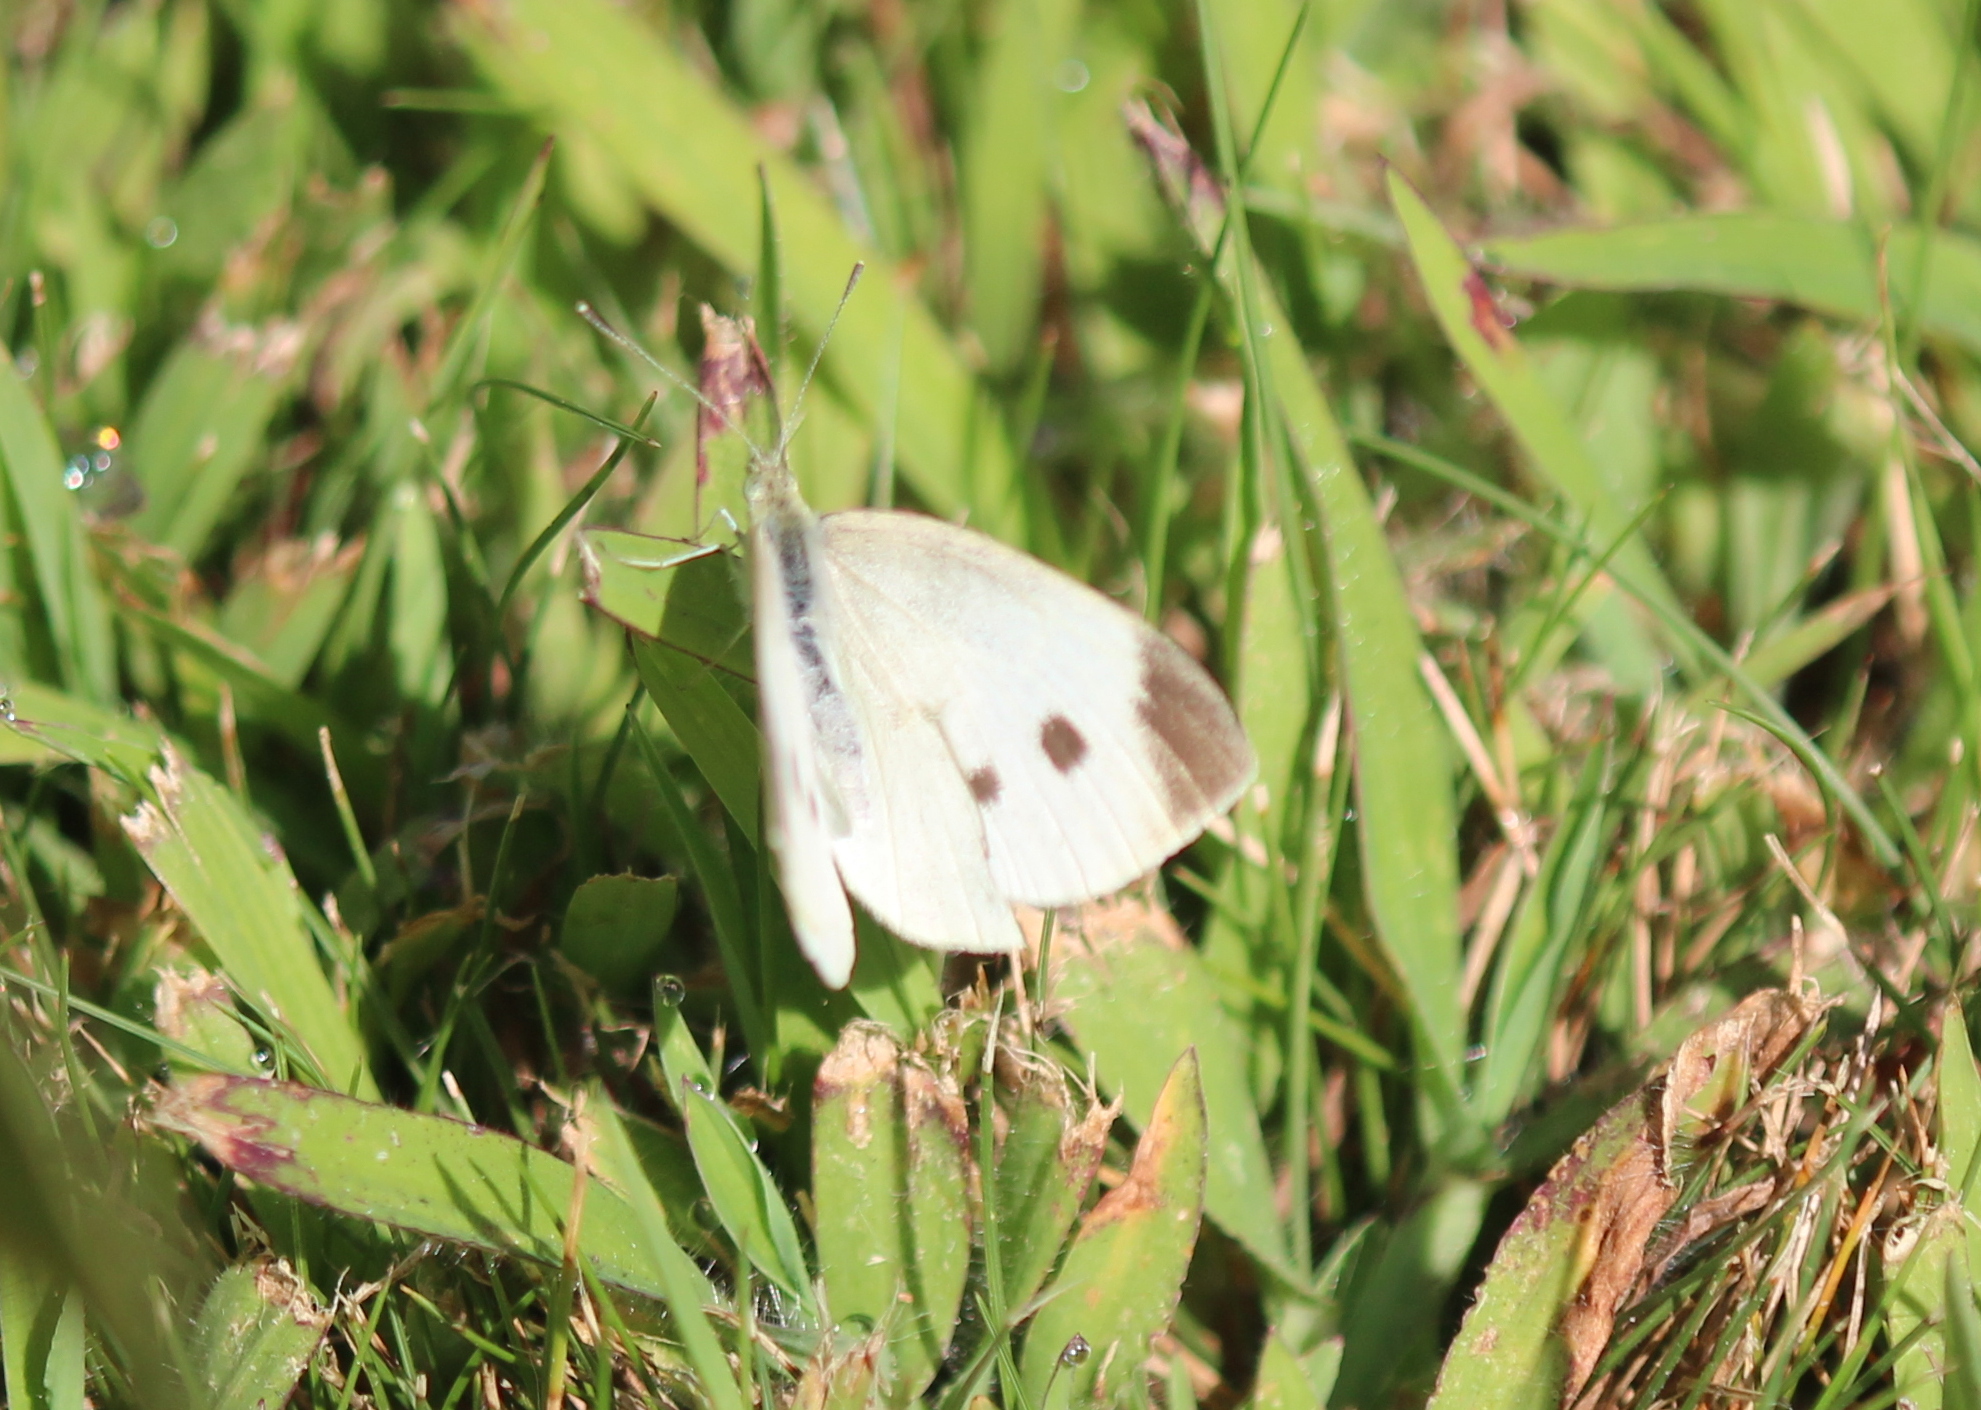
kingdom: Animalia
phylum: Arthropoda
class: Insecta
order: Lepidoptera
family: Pieridae
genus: Pieris
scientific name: Pieris rapae
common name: Small white
